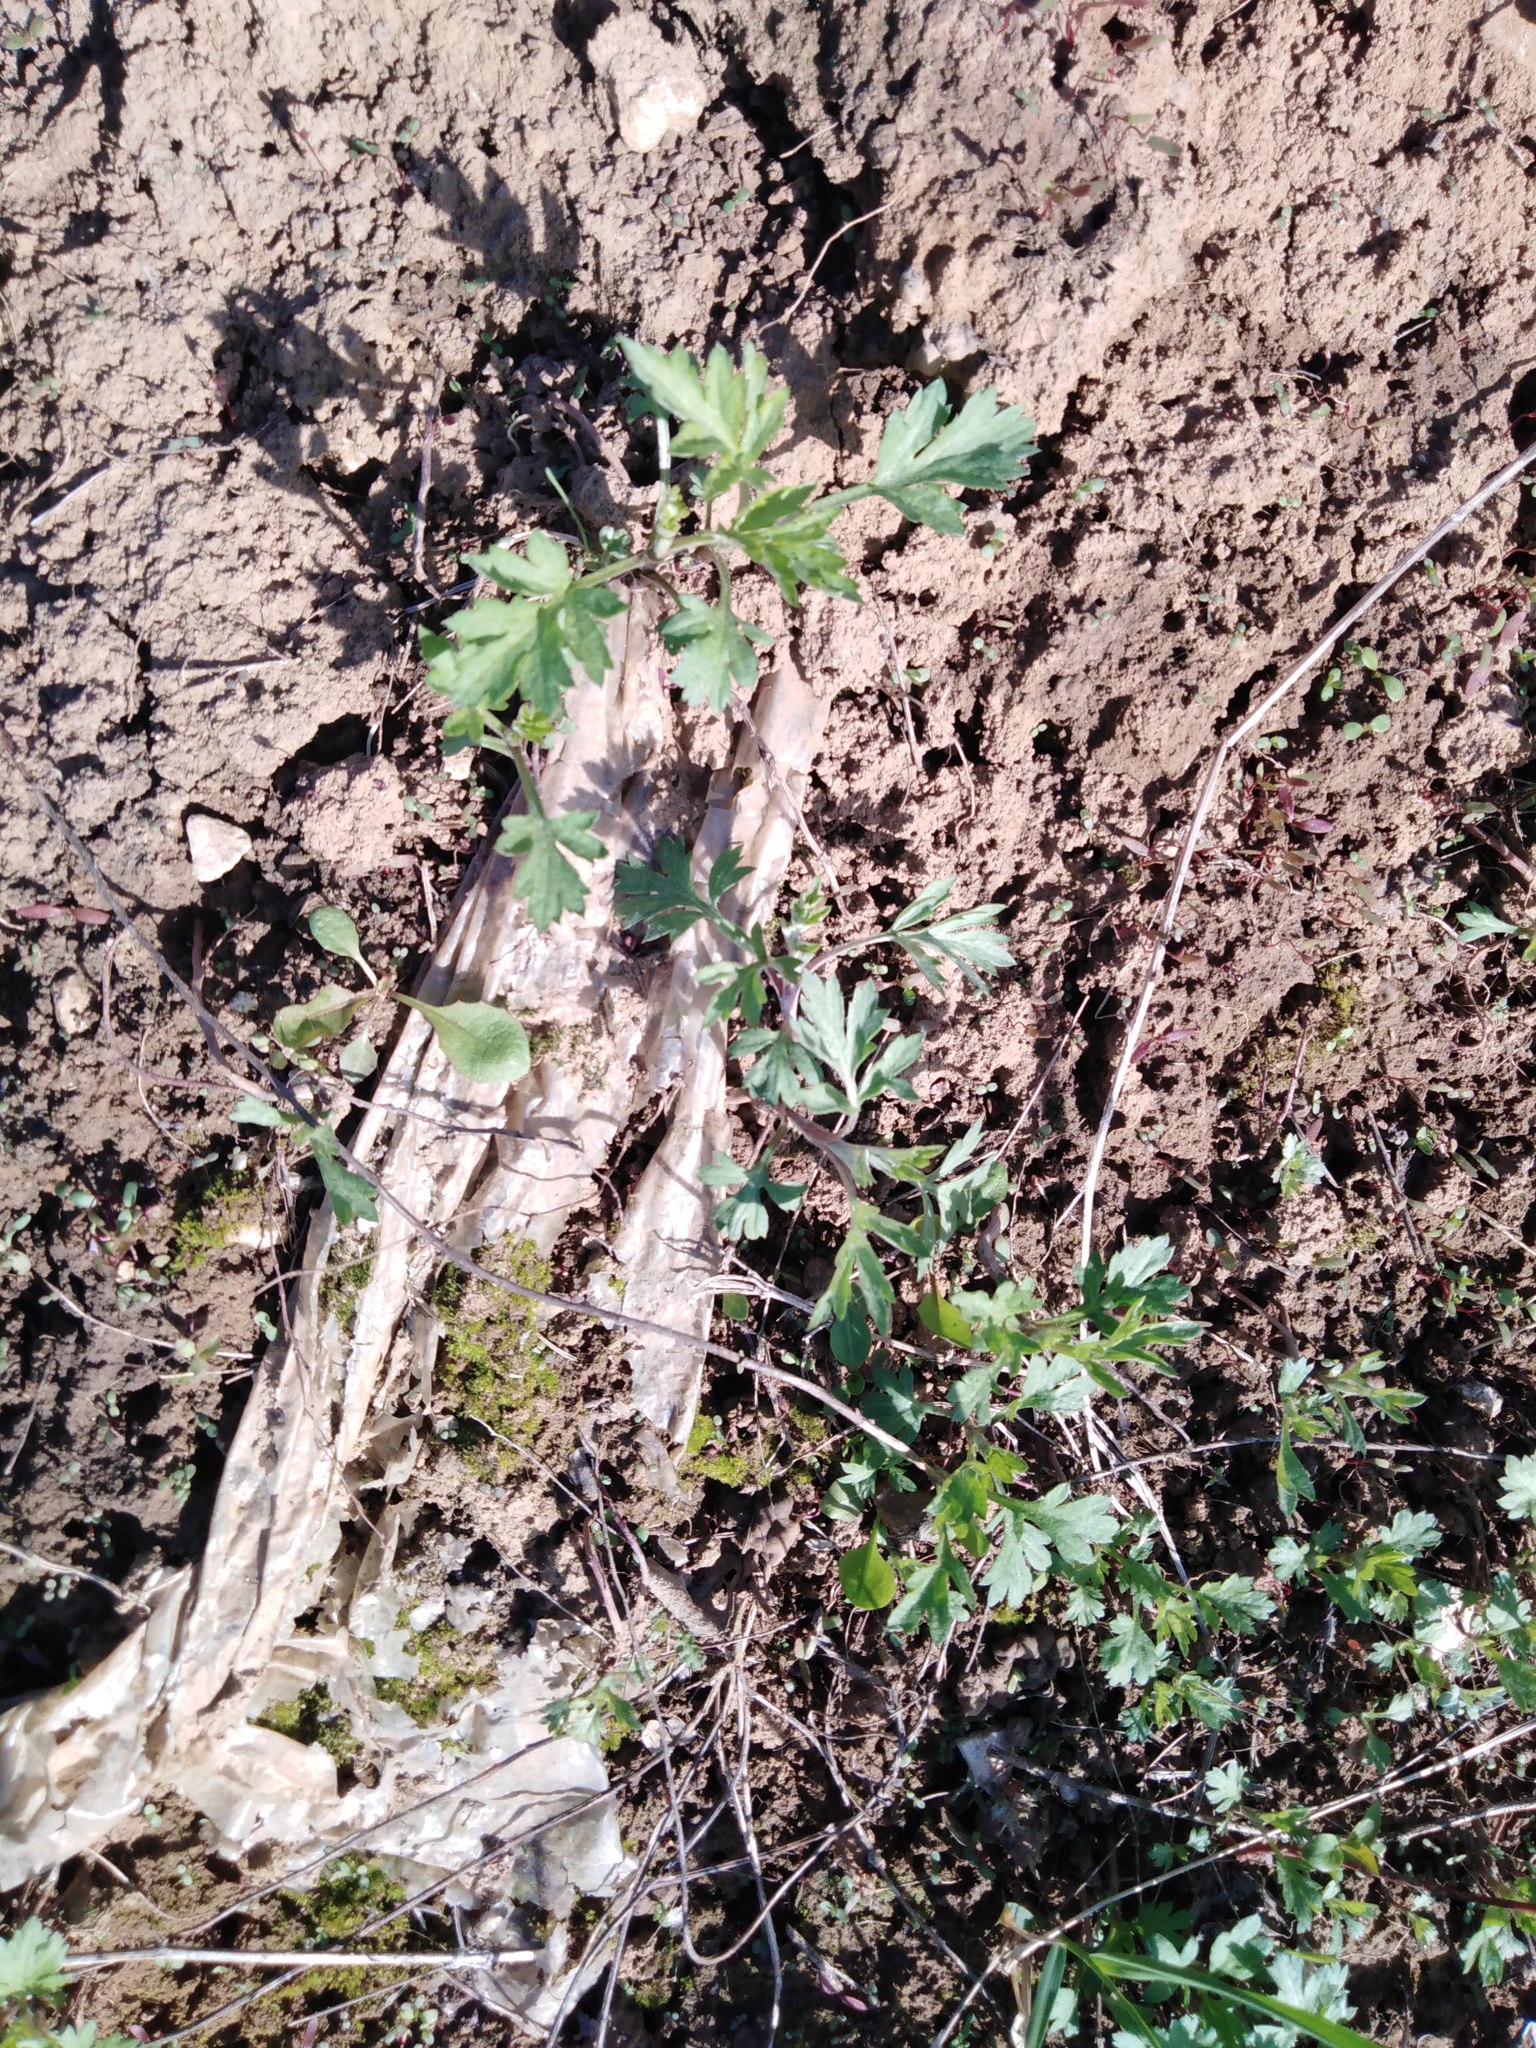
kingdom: Plantae
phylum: Tracheophyta
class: Magnoliopsida
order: Asterales
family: Asteraceae
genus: Artemisia
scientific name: Artemisia vulgaris
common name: Mugwort
